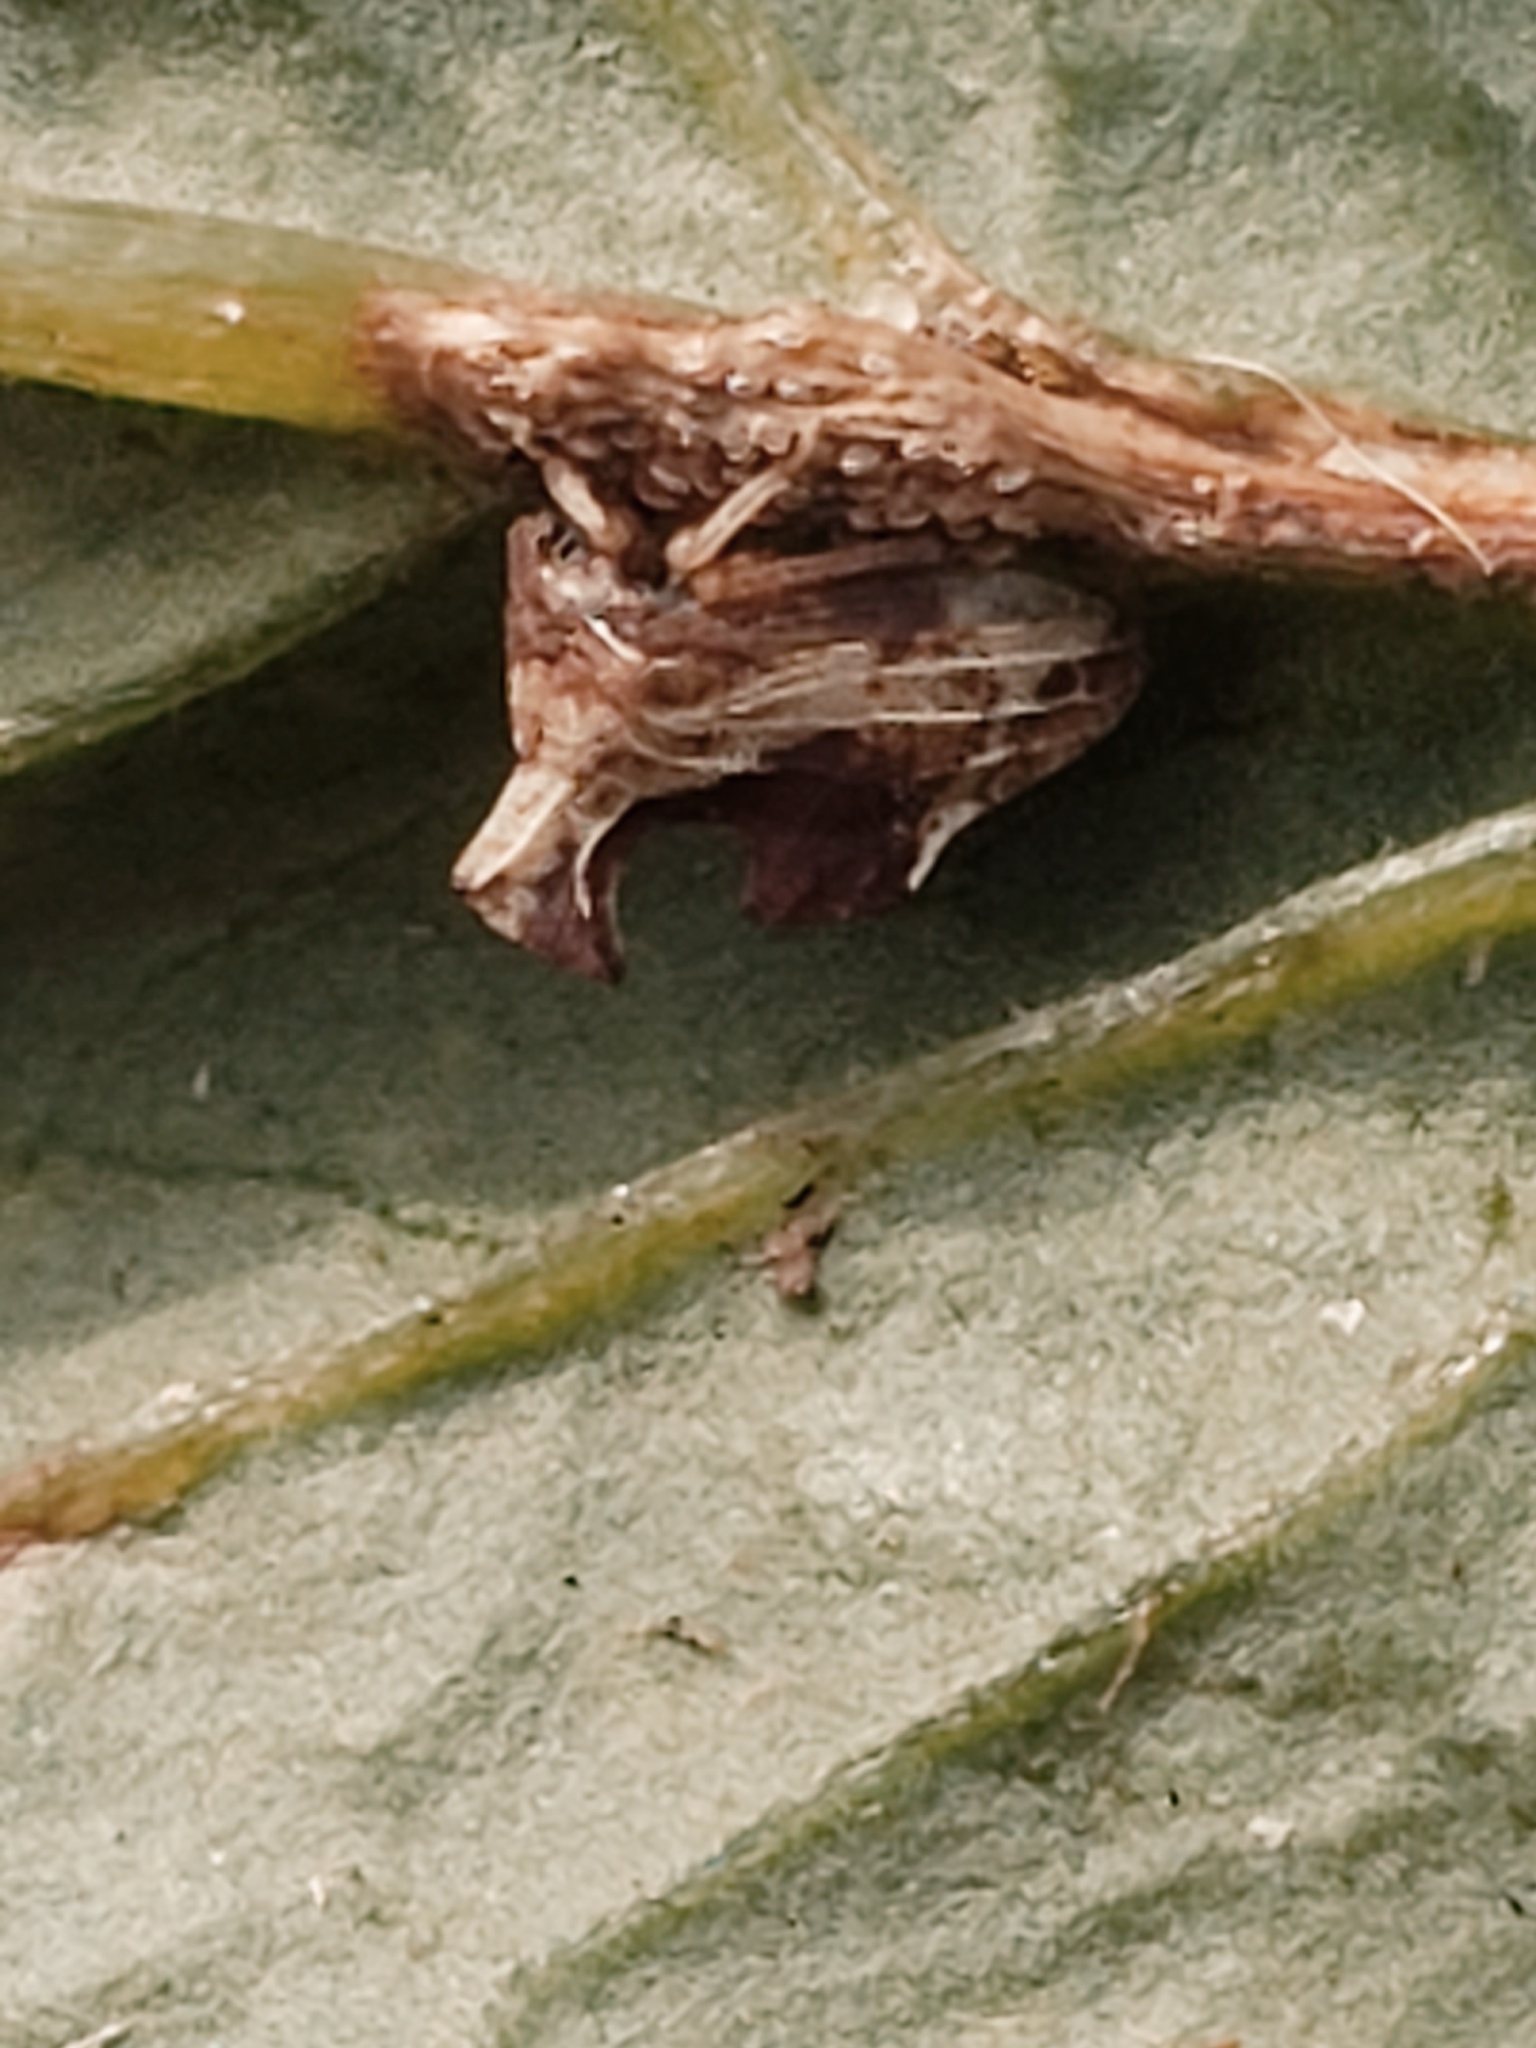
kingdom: Animalia
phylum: Arthropoda
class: Insecta
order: Hemiptera
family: Membracidae
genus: Entylia
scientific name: Entylia carinata
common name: Keeled treehopper
